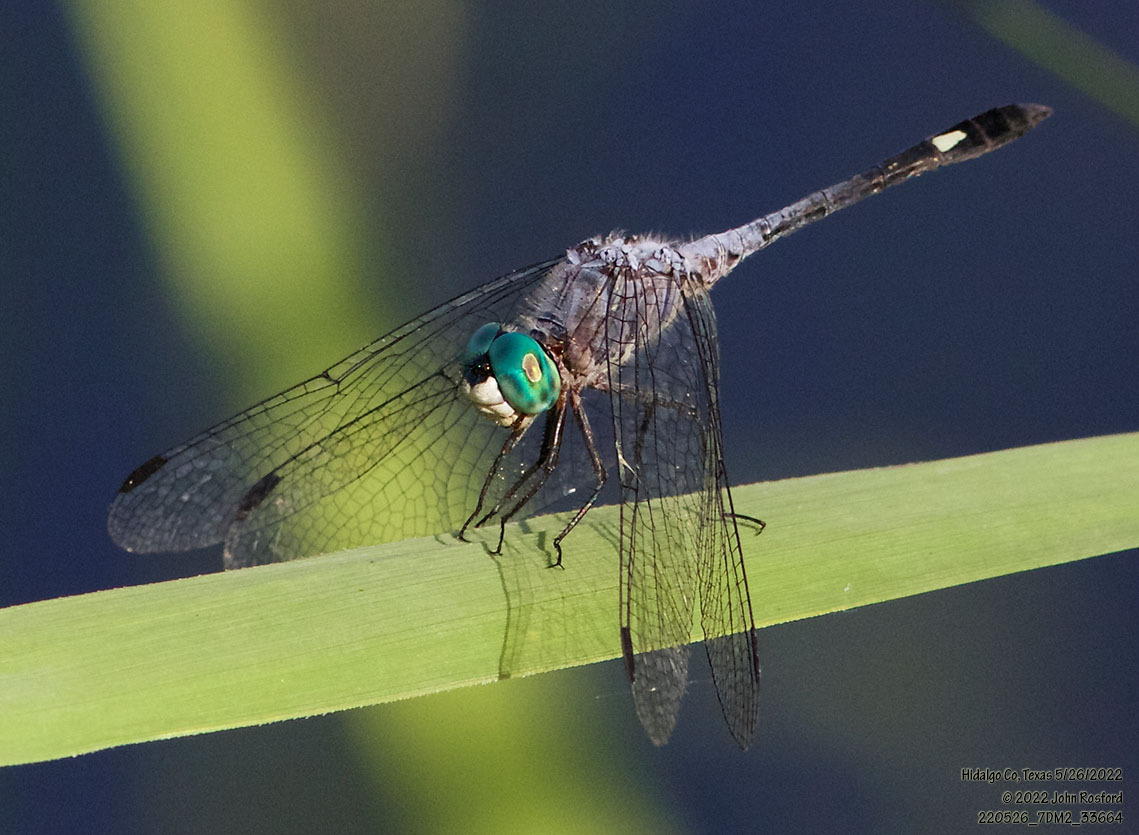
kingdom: Animalia
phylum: Arthropoda
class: Insecta
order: Odonata
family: Libellulidae
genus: Micrathyria
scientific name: Micrathyria aequalis
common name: Spot-tailed dasher
